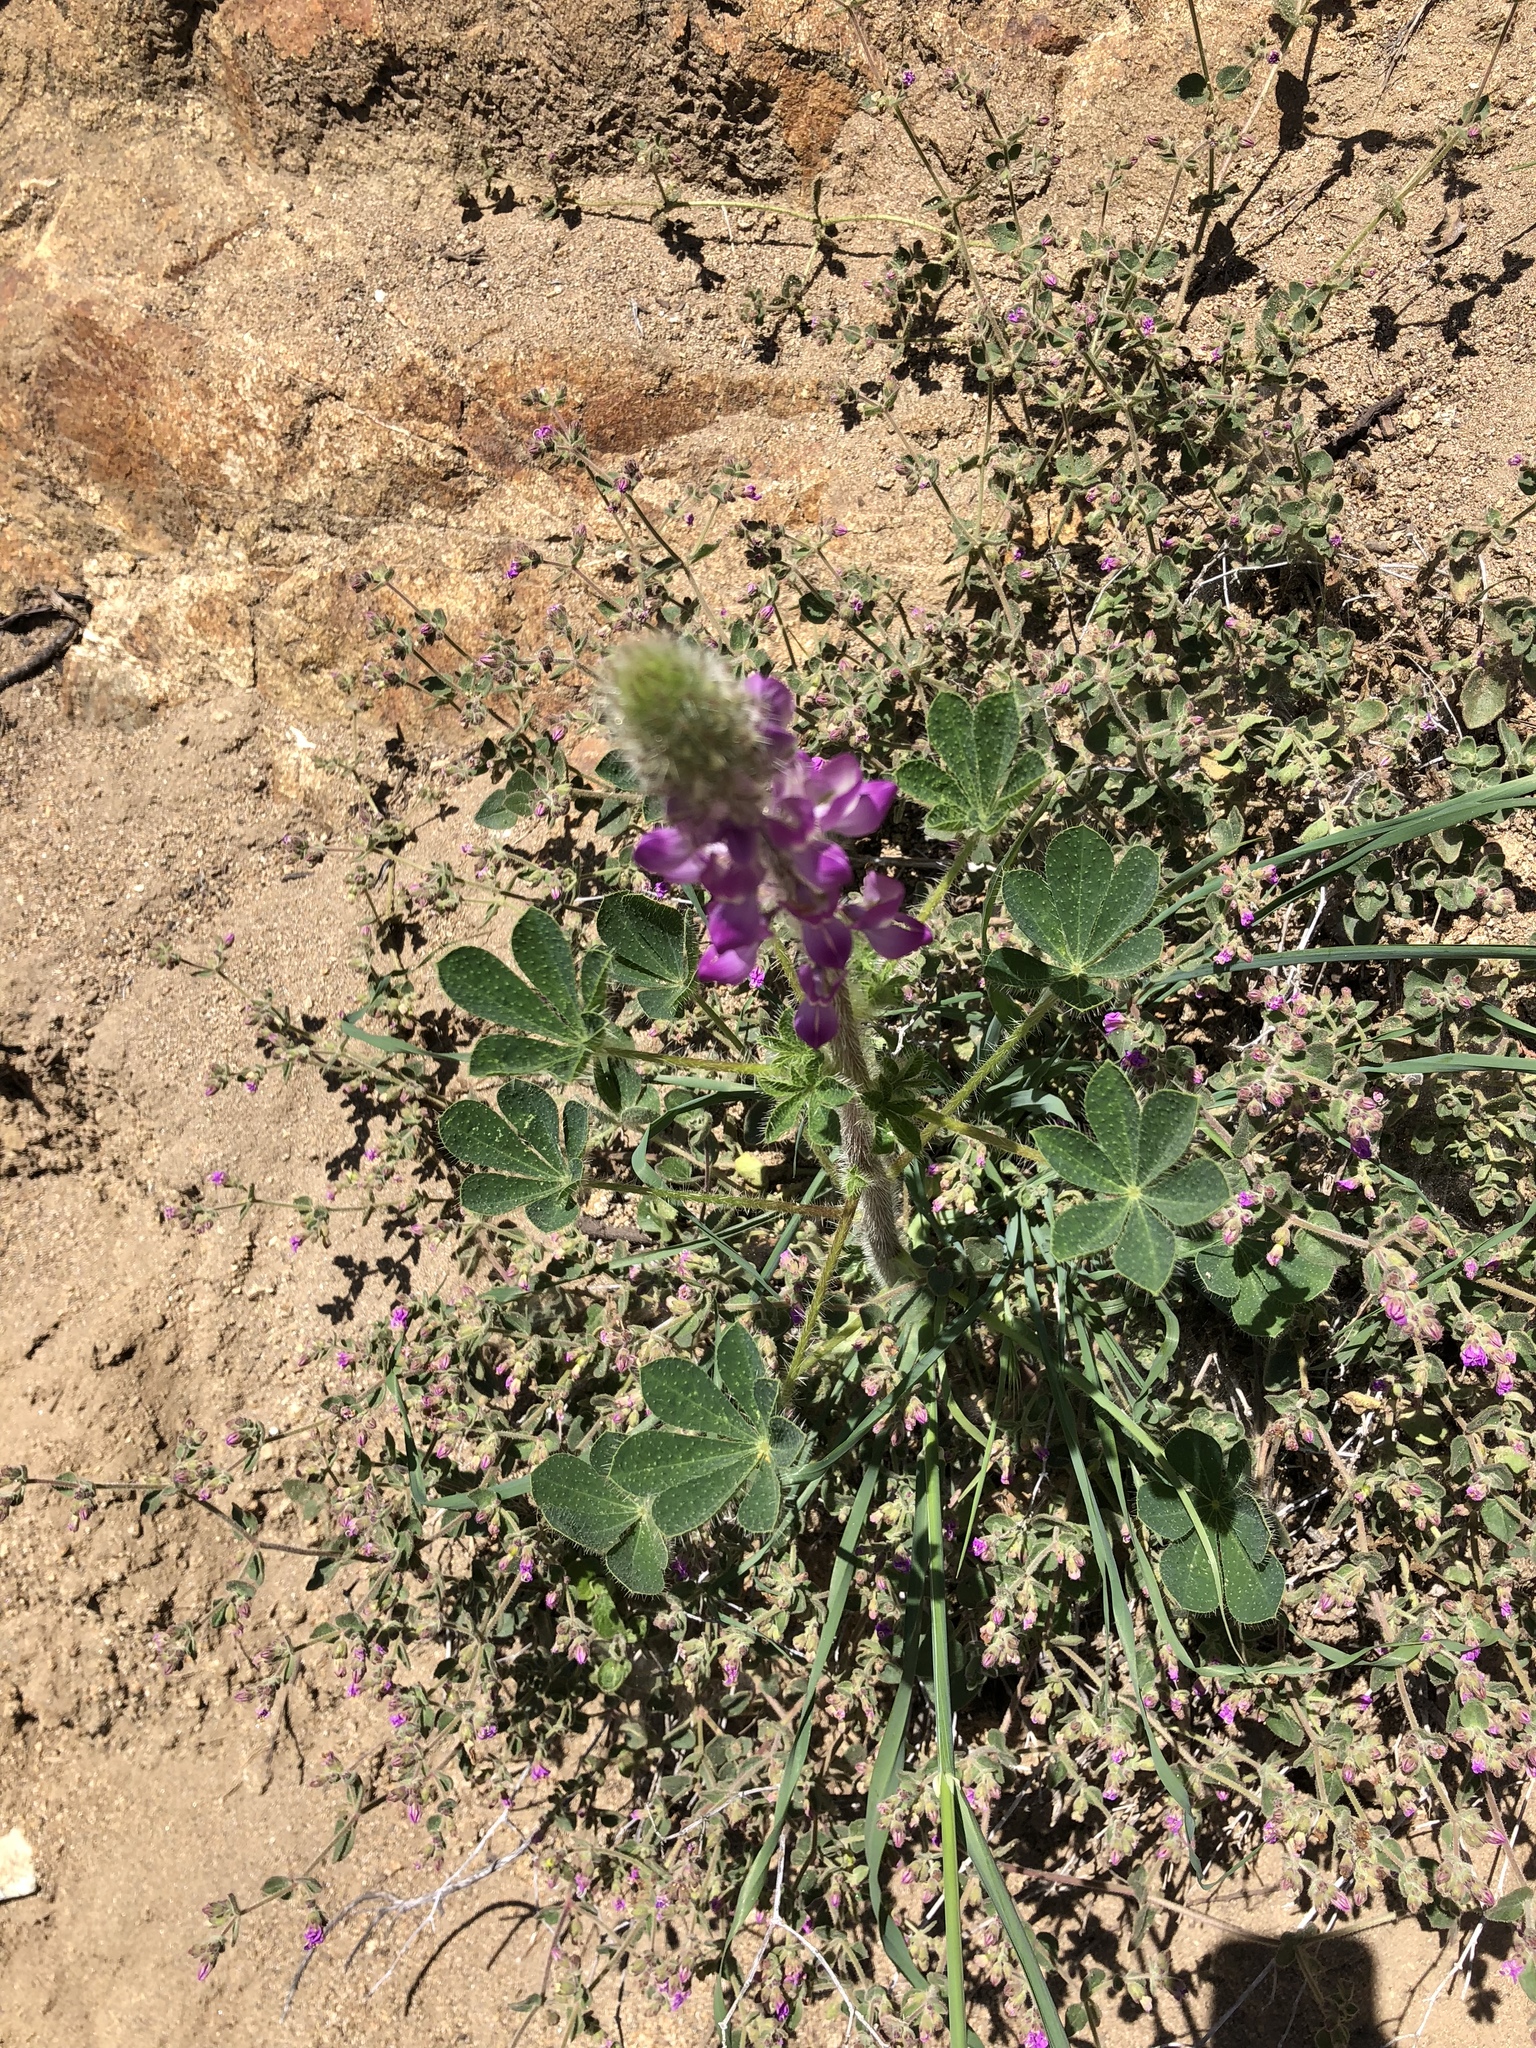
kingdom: Plantae
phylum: Tracheophyta
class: Magnoliopsida
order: Fabales
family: Fabaceae
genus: Lupinus
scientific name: Lupinus hirsutissimus
